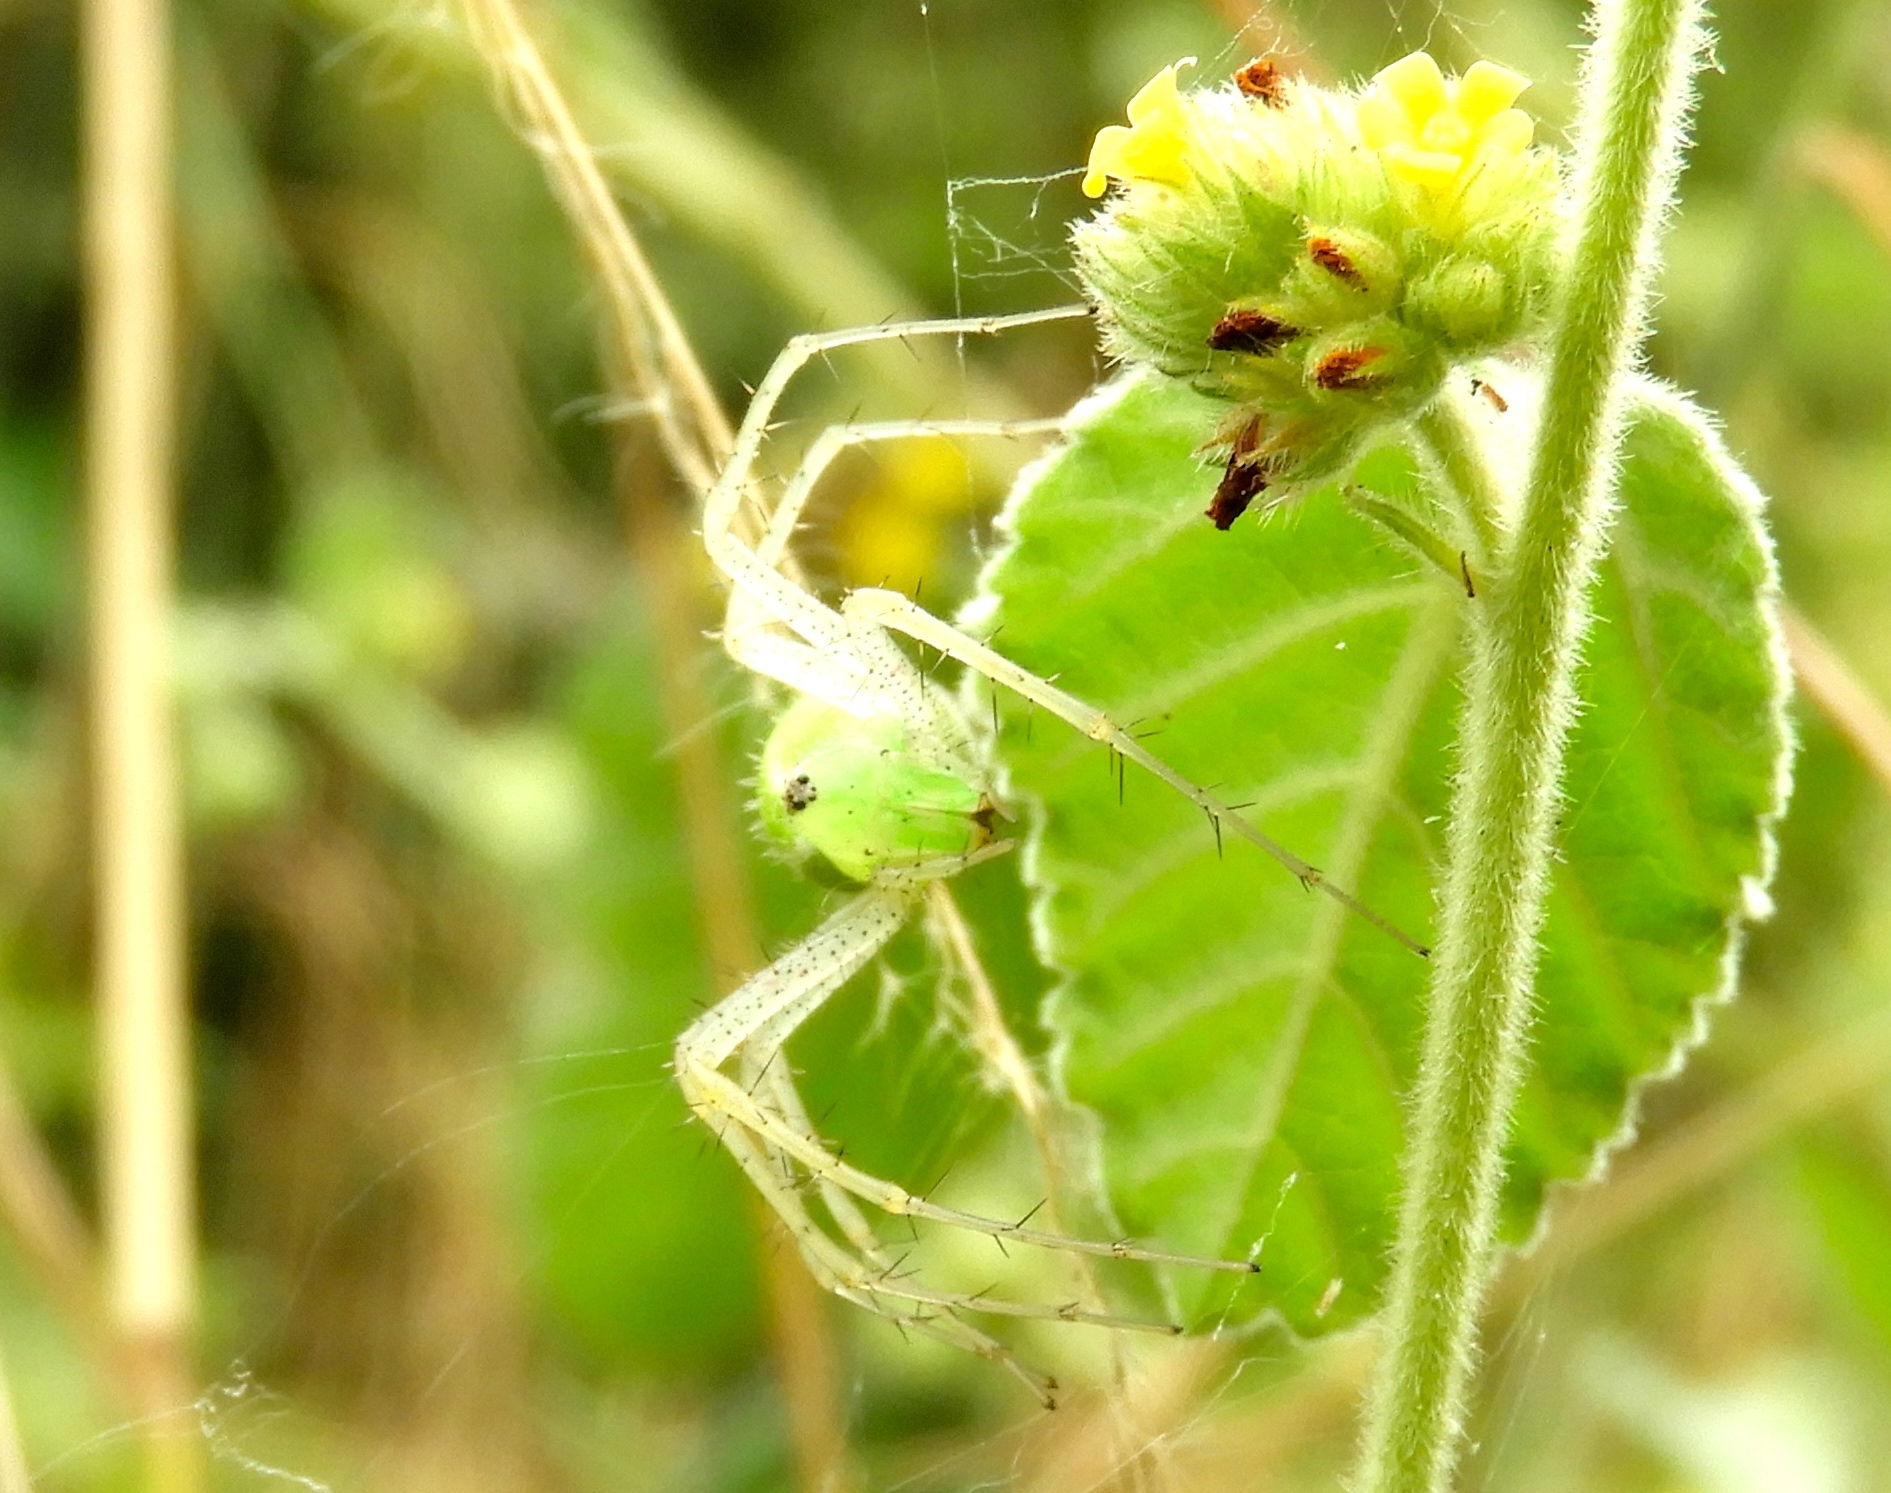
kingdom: Animalia
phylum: Arthropoda
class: Arachnida
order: Araneae
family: Oxyopidae
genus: Peucetia
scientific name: Peucetia
